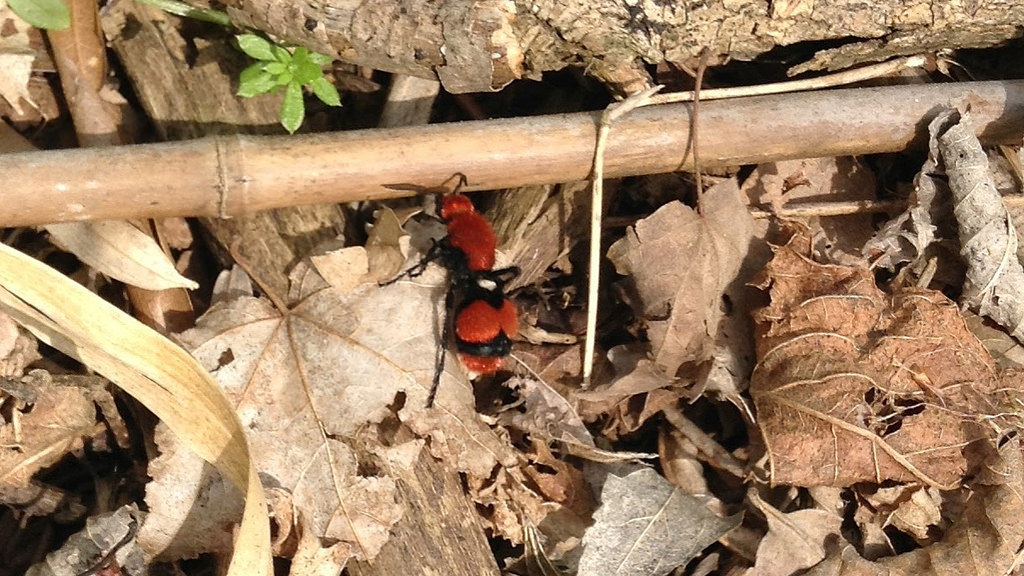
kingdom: Animalia
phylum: Arthropoda
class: Insecta
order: Hymenoptera
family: Mutillidae
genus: Dasymutilla
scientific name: Dasymutilla occidentalis
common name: Common eastern velvet ant
